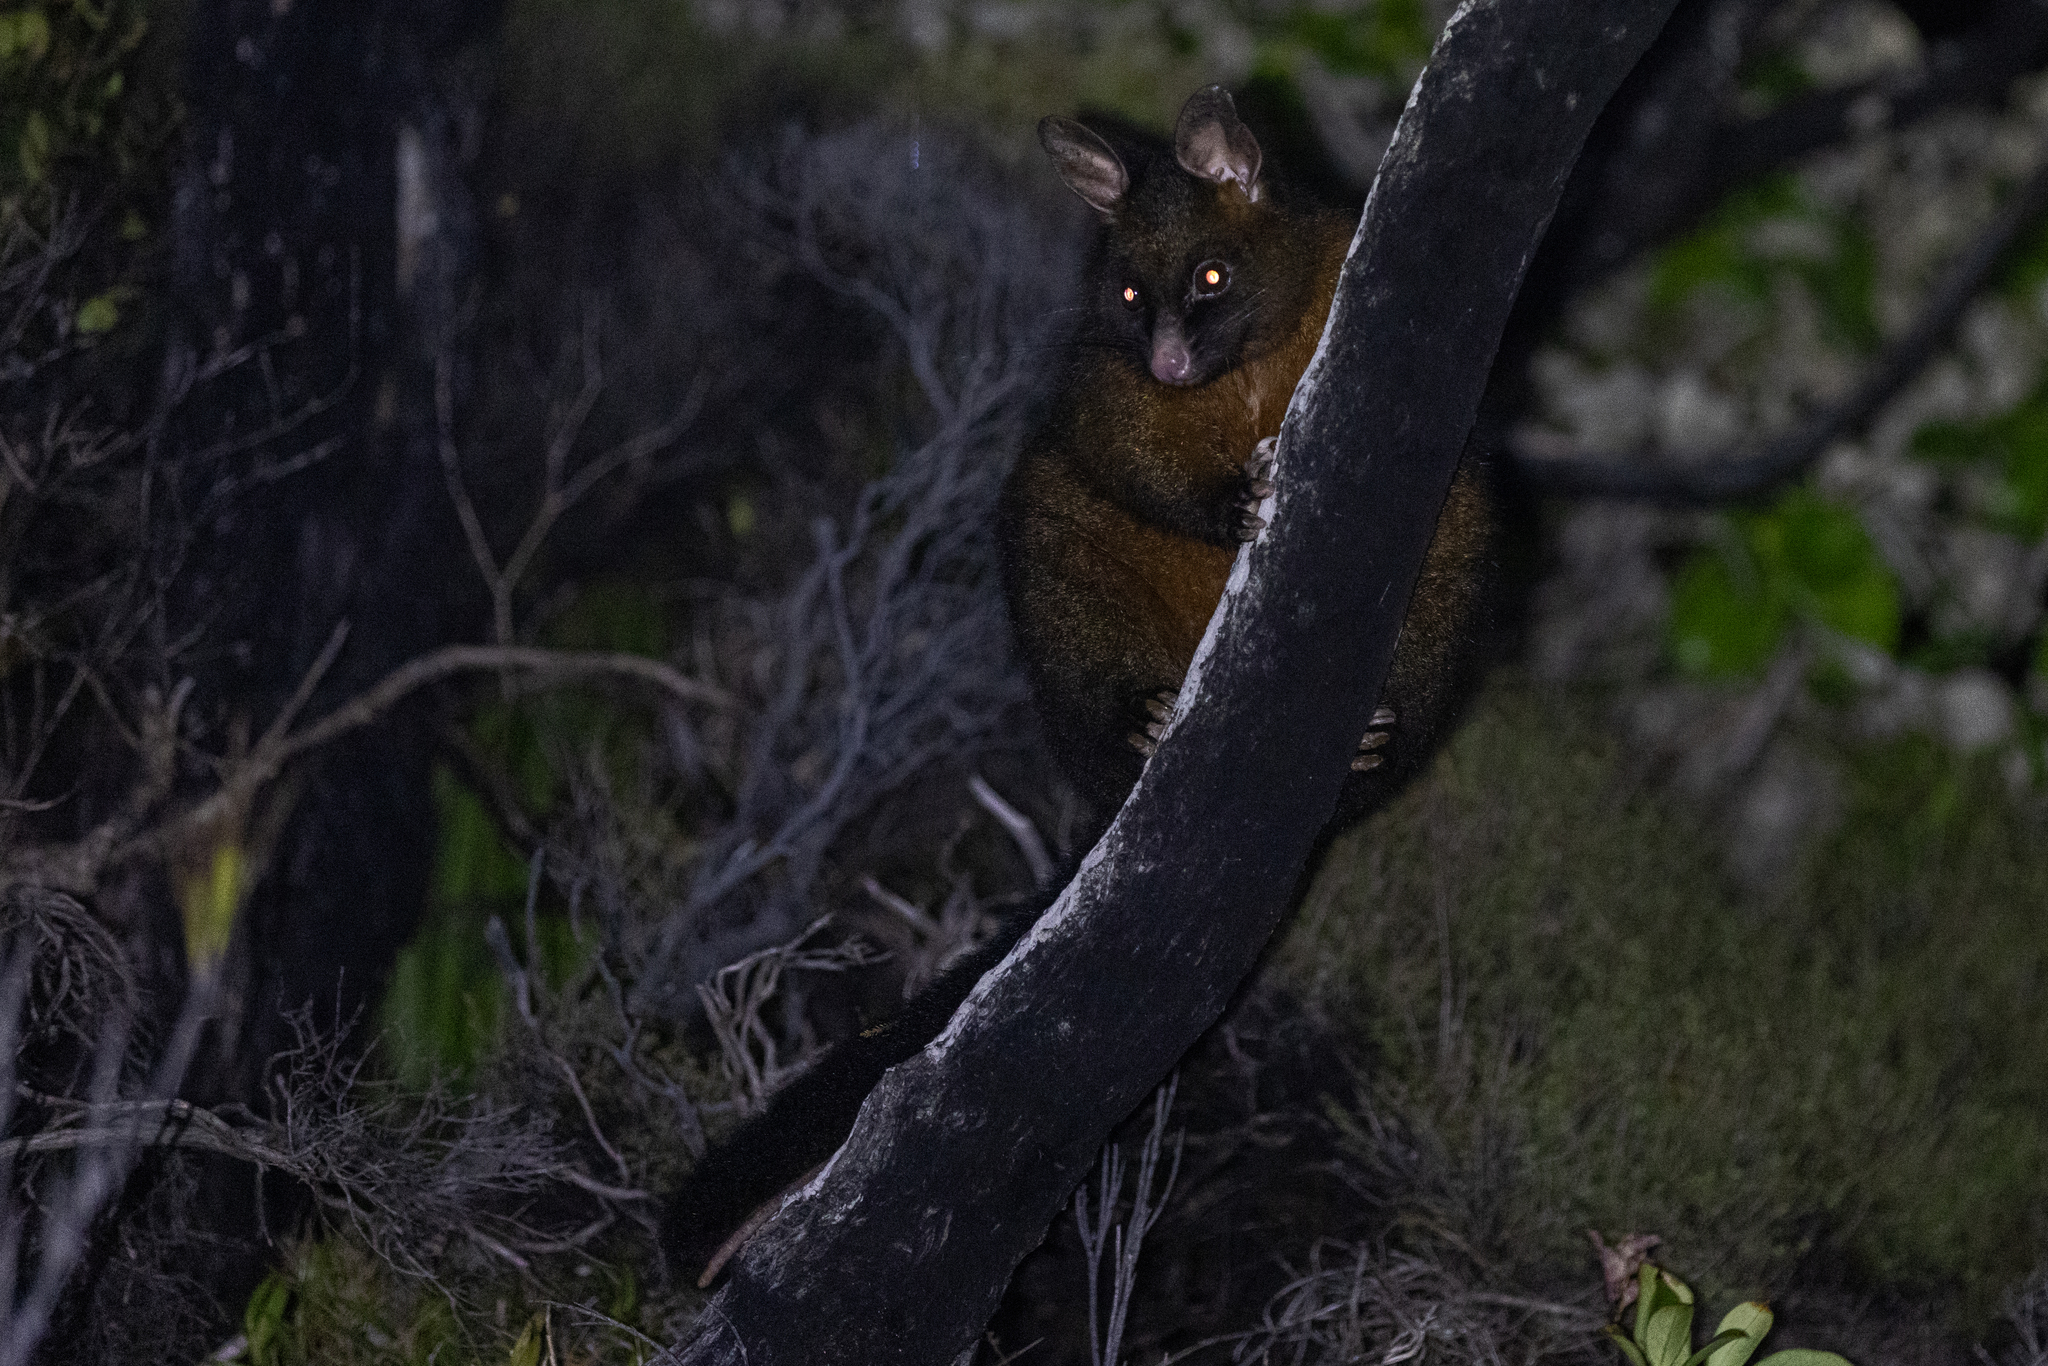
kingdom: Animalia
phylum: Chordata
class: Mammalia
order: Diprotodontia
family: Phalangeridae
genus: Trichosurus
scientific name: Trichosurus vulpecula
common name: Common brushtail
